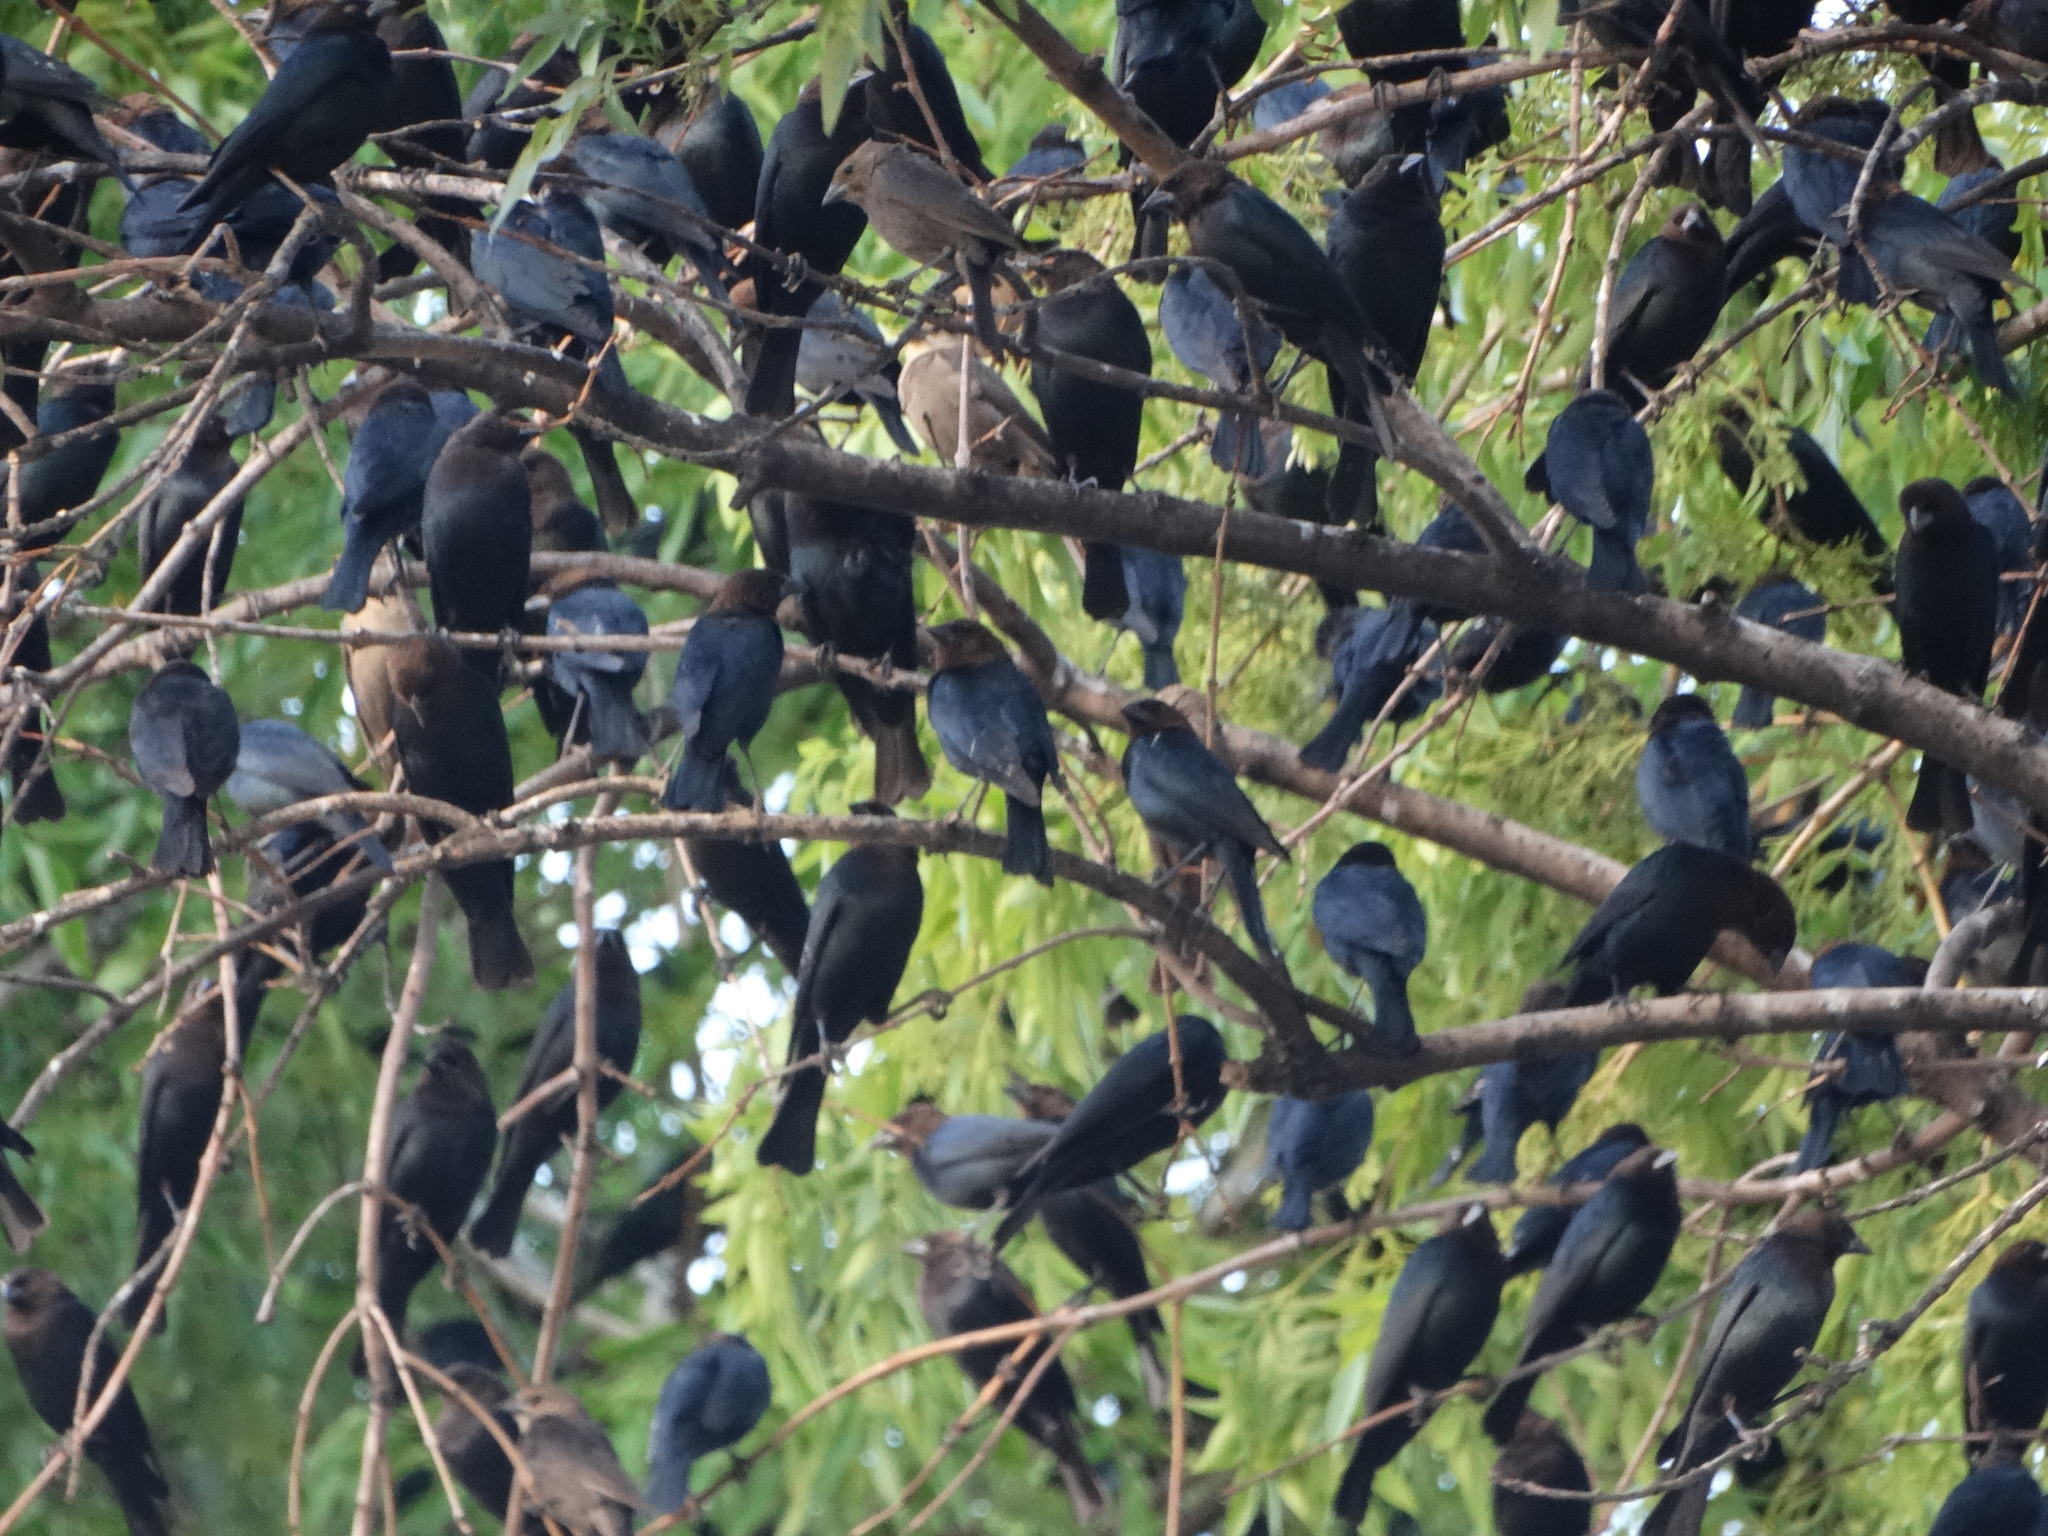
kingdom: Animalia
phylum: Chordata
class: Aves
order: Passeriformes
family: Icteridae
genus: Molothrus
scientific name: Molothrus ater
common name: Brown-headed cowbird
